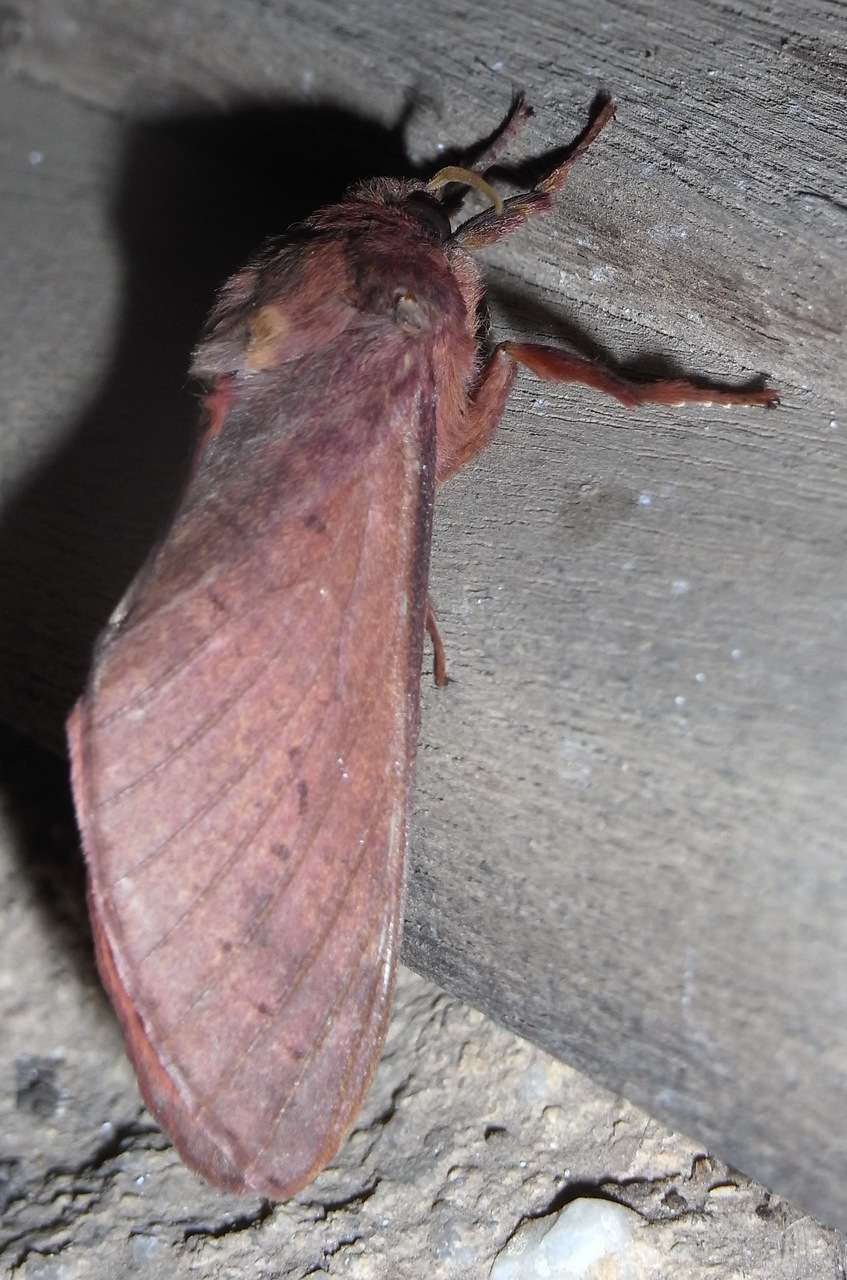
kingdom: Animalia
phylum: Arthropoda
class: Insecta
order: Lepidoptera
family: Hepialidae
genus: Oxycanus
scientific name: Oxycanus rufescens
